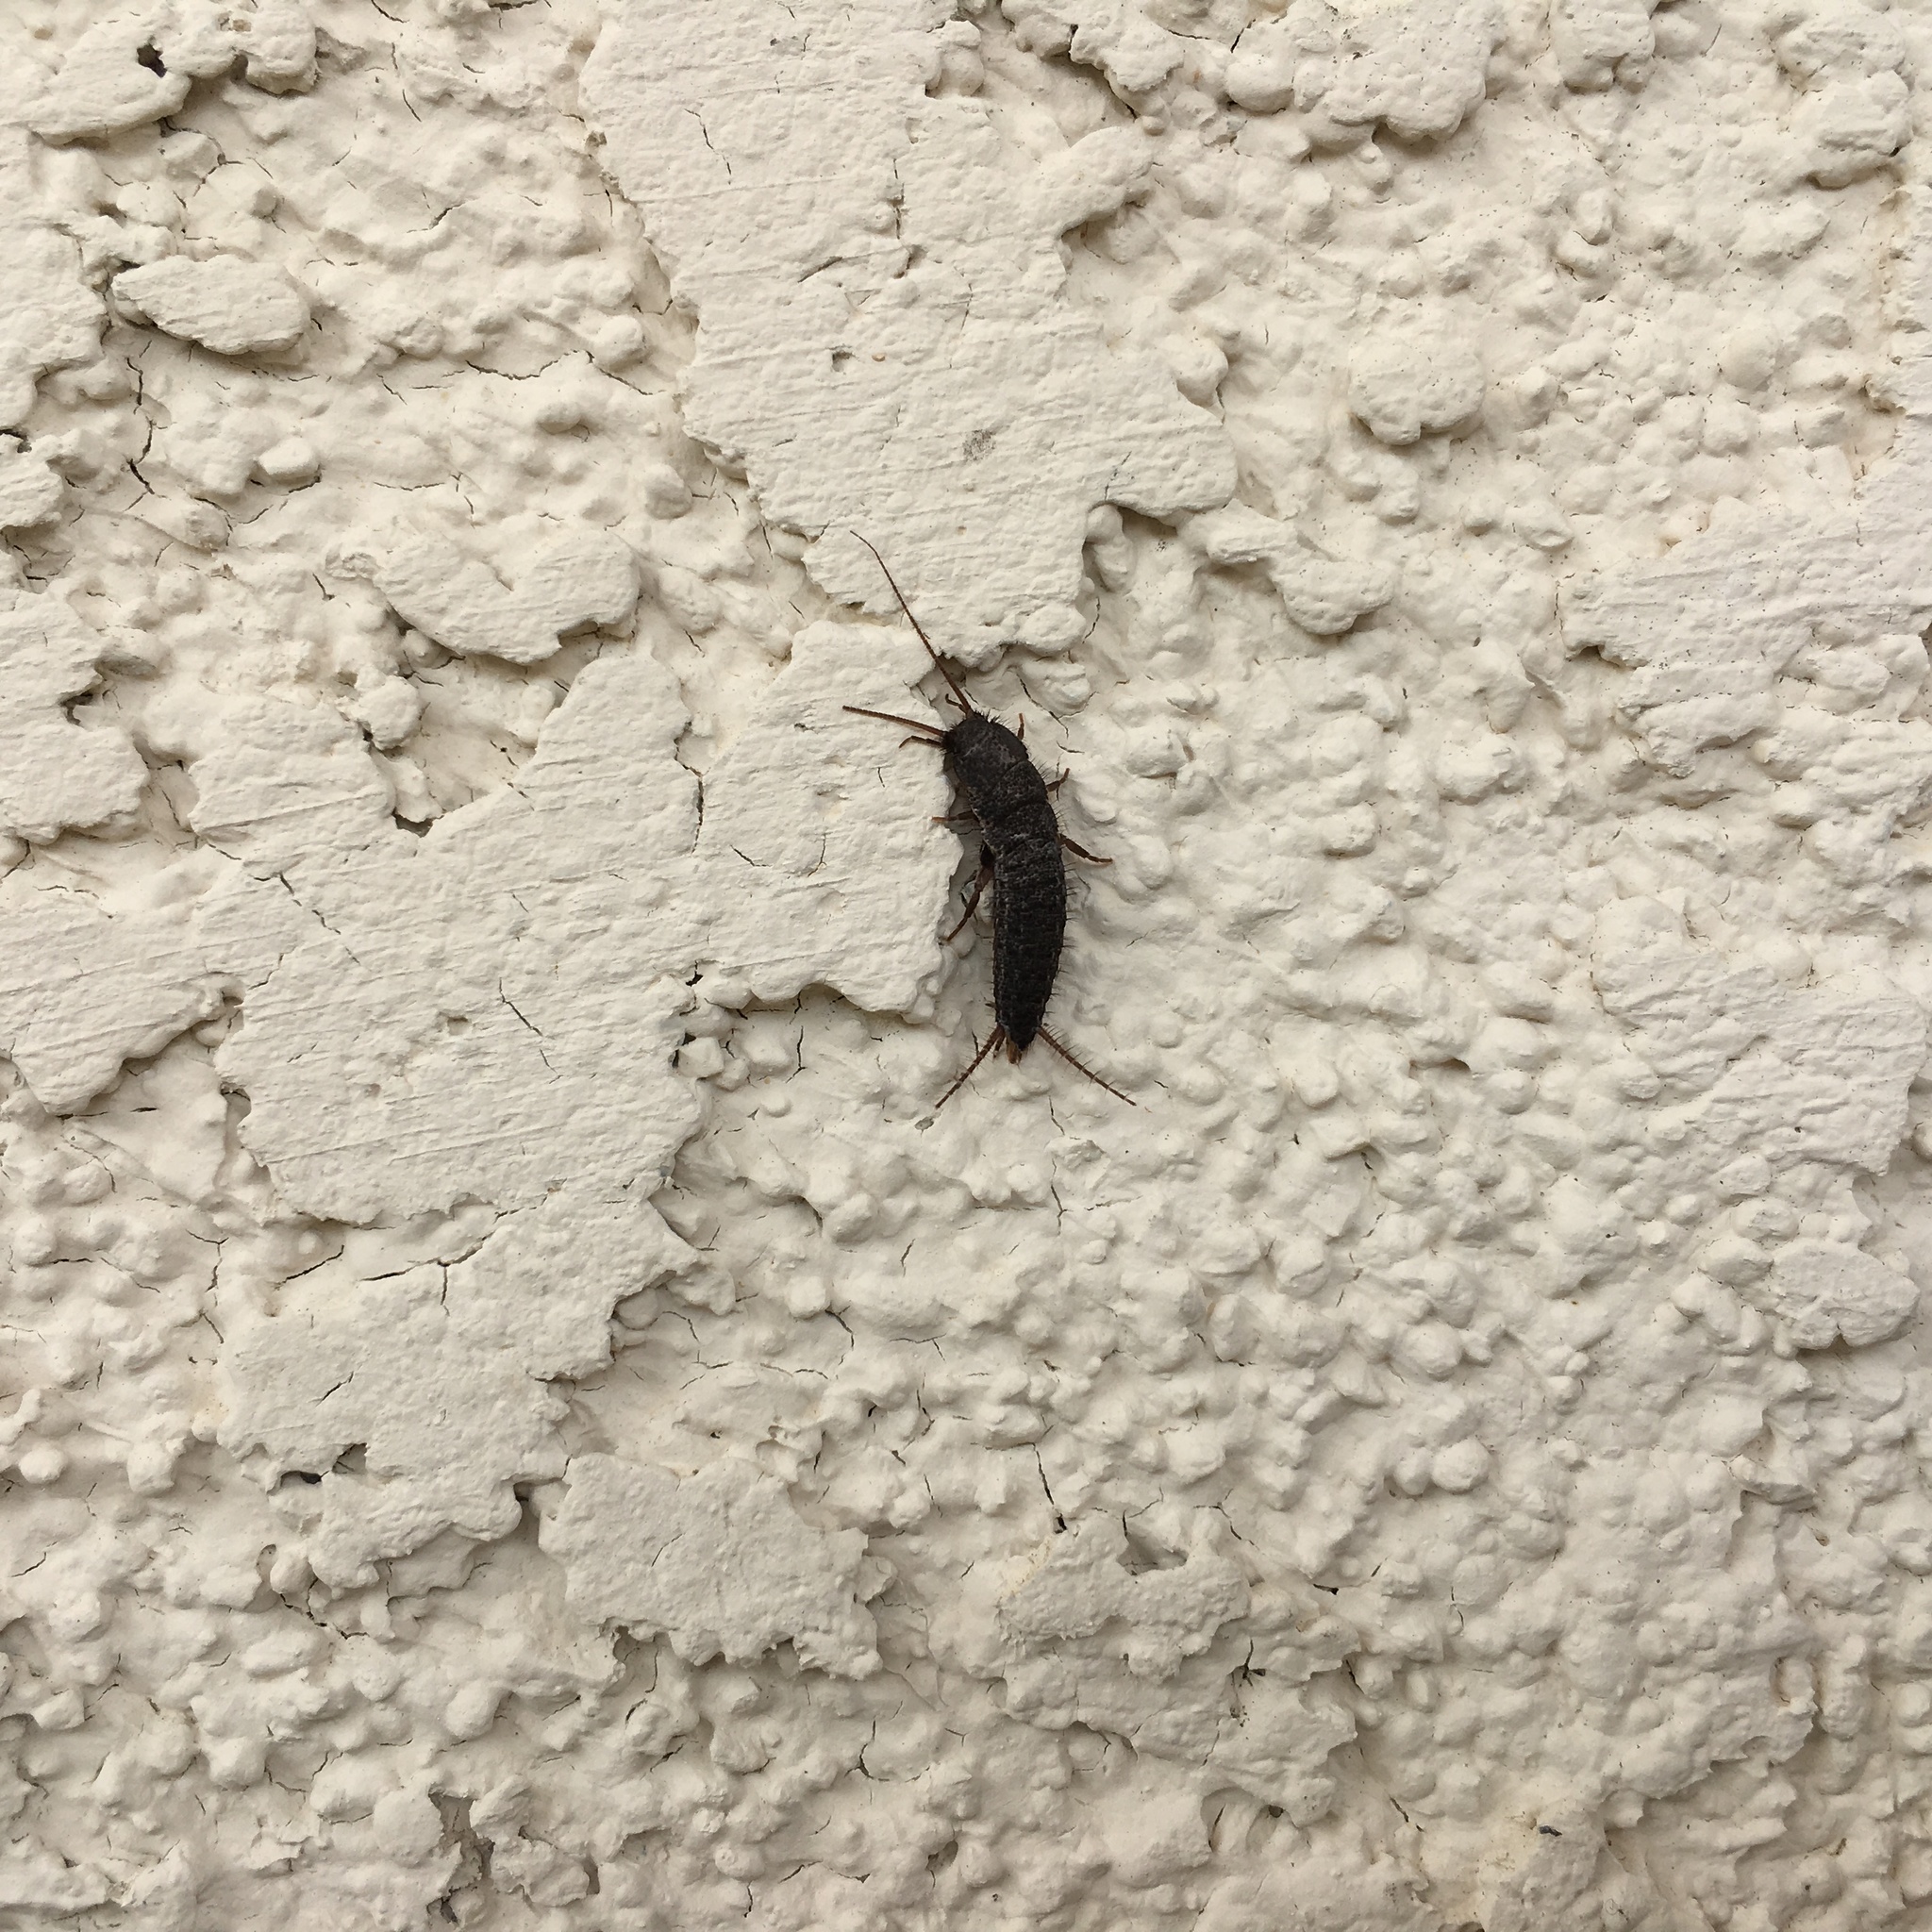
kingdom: Animalia
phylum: Arthropoda
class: Insecta
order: Zygentoma
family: Lepismatidae
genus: Allacrotelsa
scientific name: Allacrotelsa spinulata
